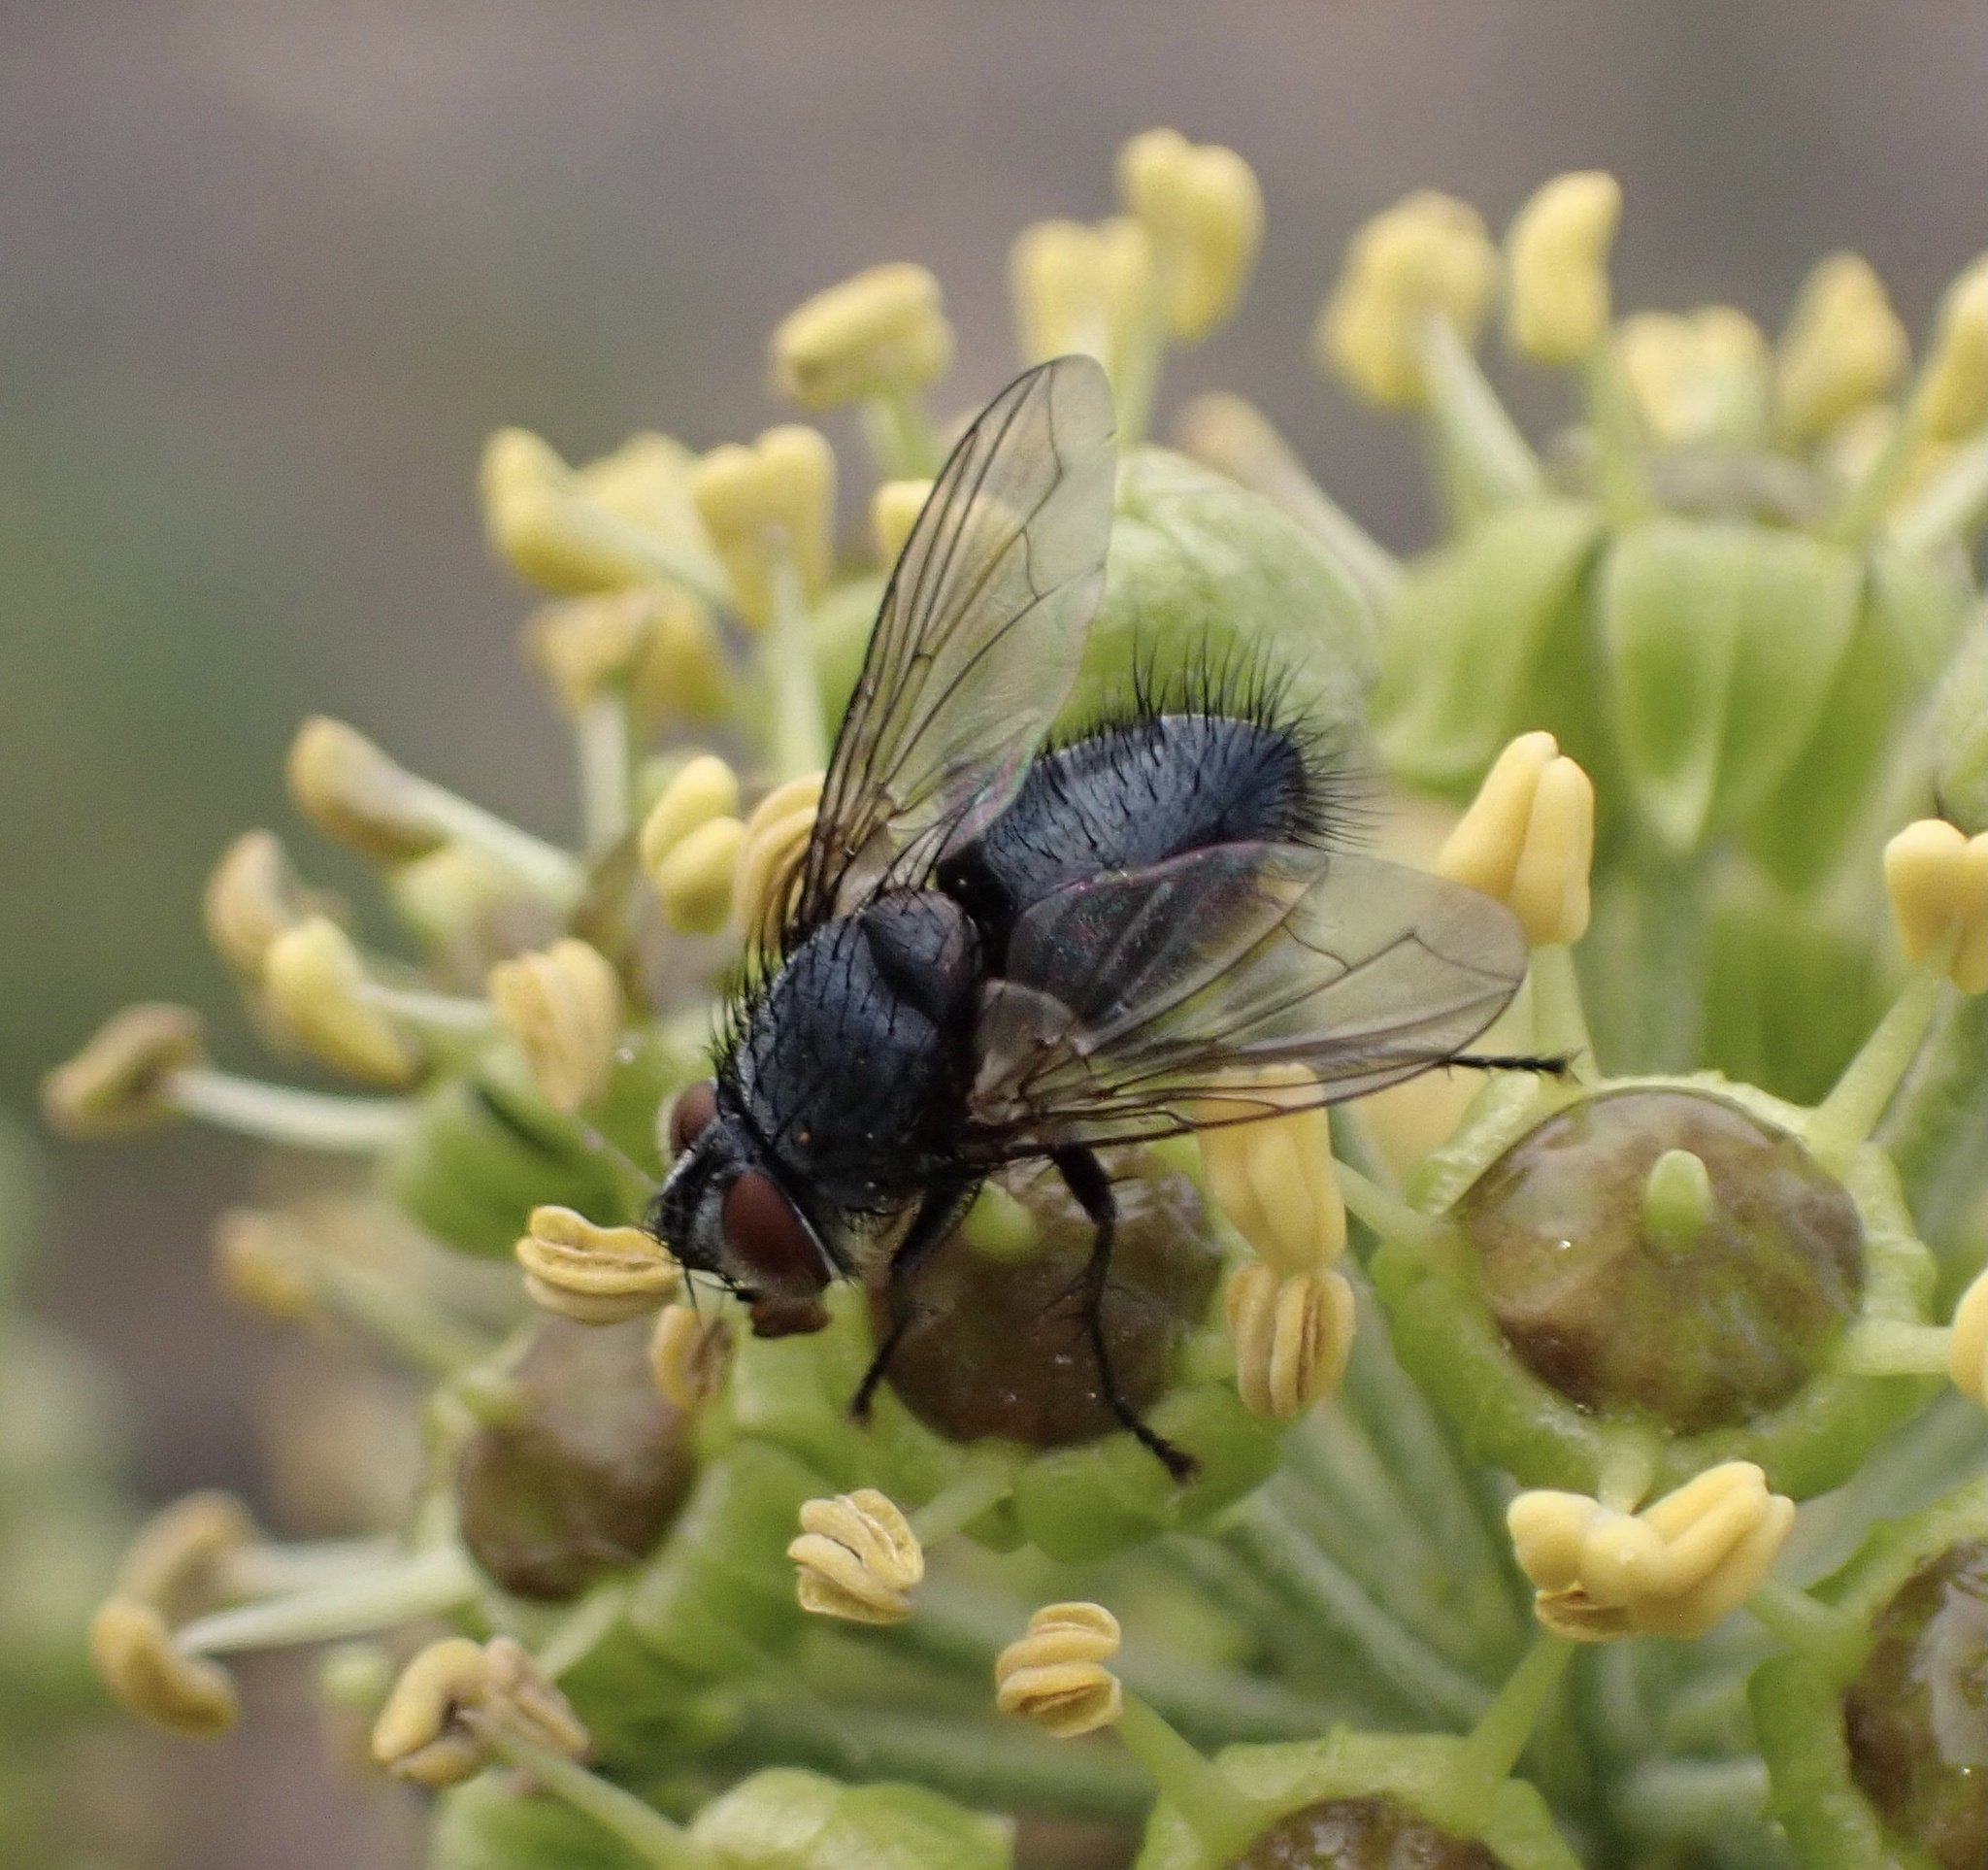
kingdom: Animalia
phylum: Arthropoda
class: Insecta
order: Diptera
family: Tachinidae
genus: Eurithia
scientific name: Eurithia anthophila
